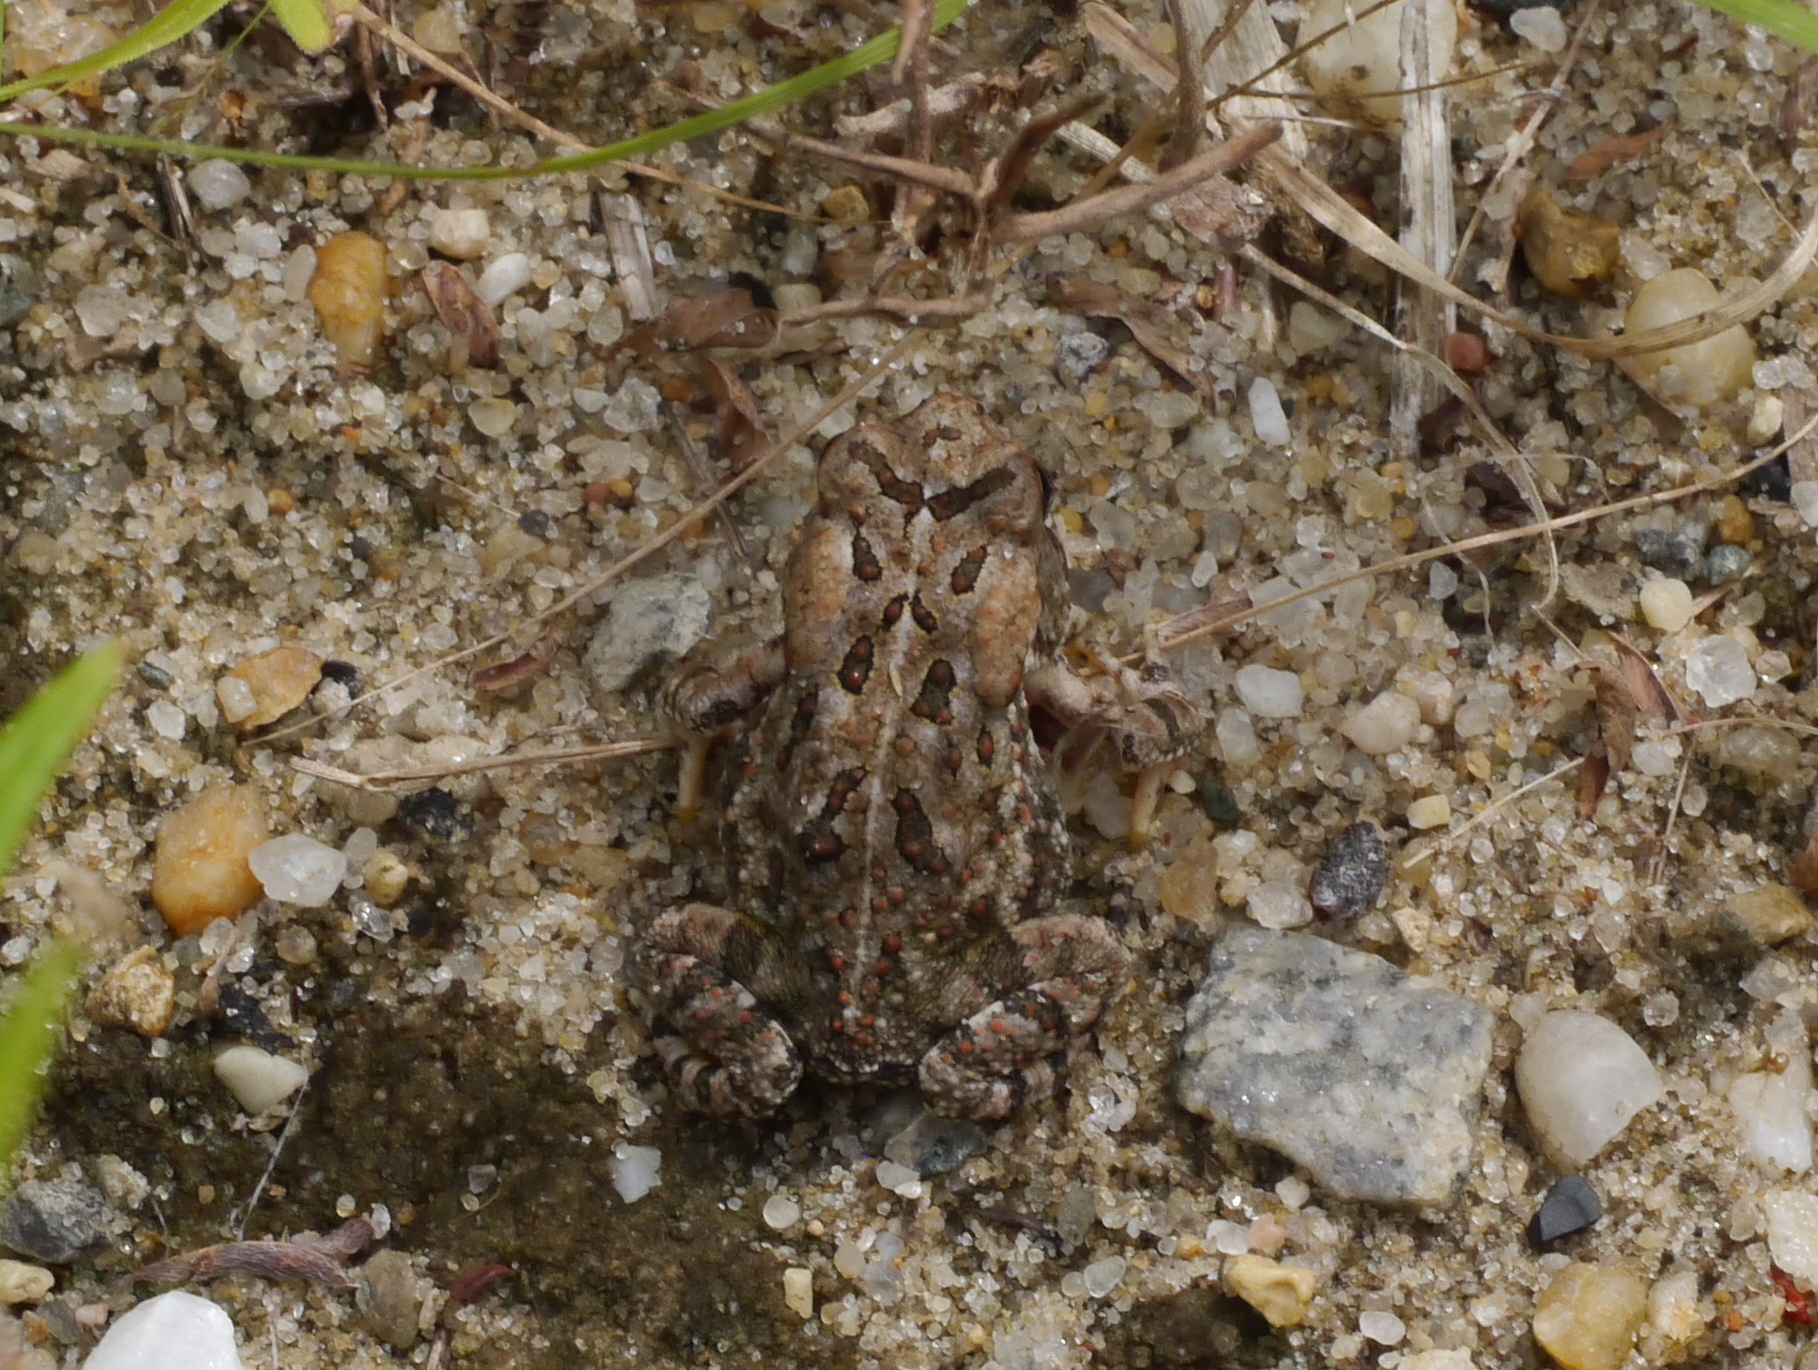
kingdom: Animalia
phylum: Chordata
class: Amphibia
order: Anura
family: Bufonidae
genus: Anaxyrus
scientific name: Anaxyrus fowleri
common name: Fowler's toad
